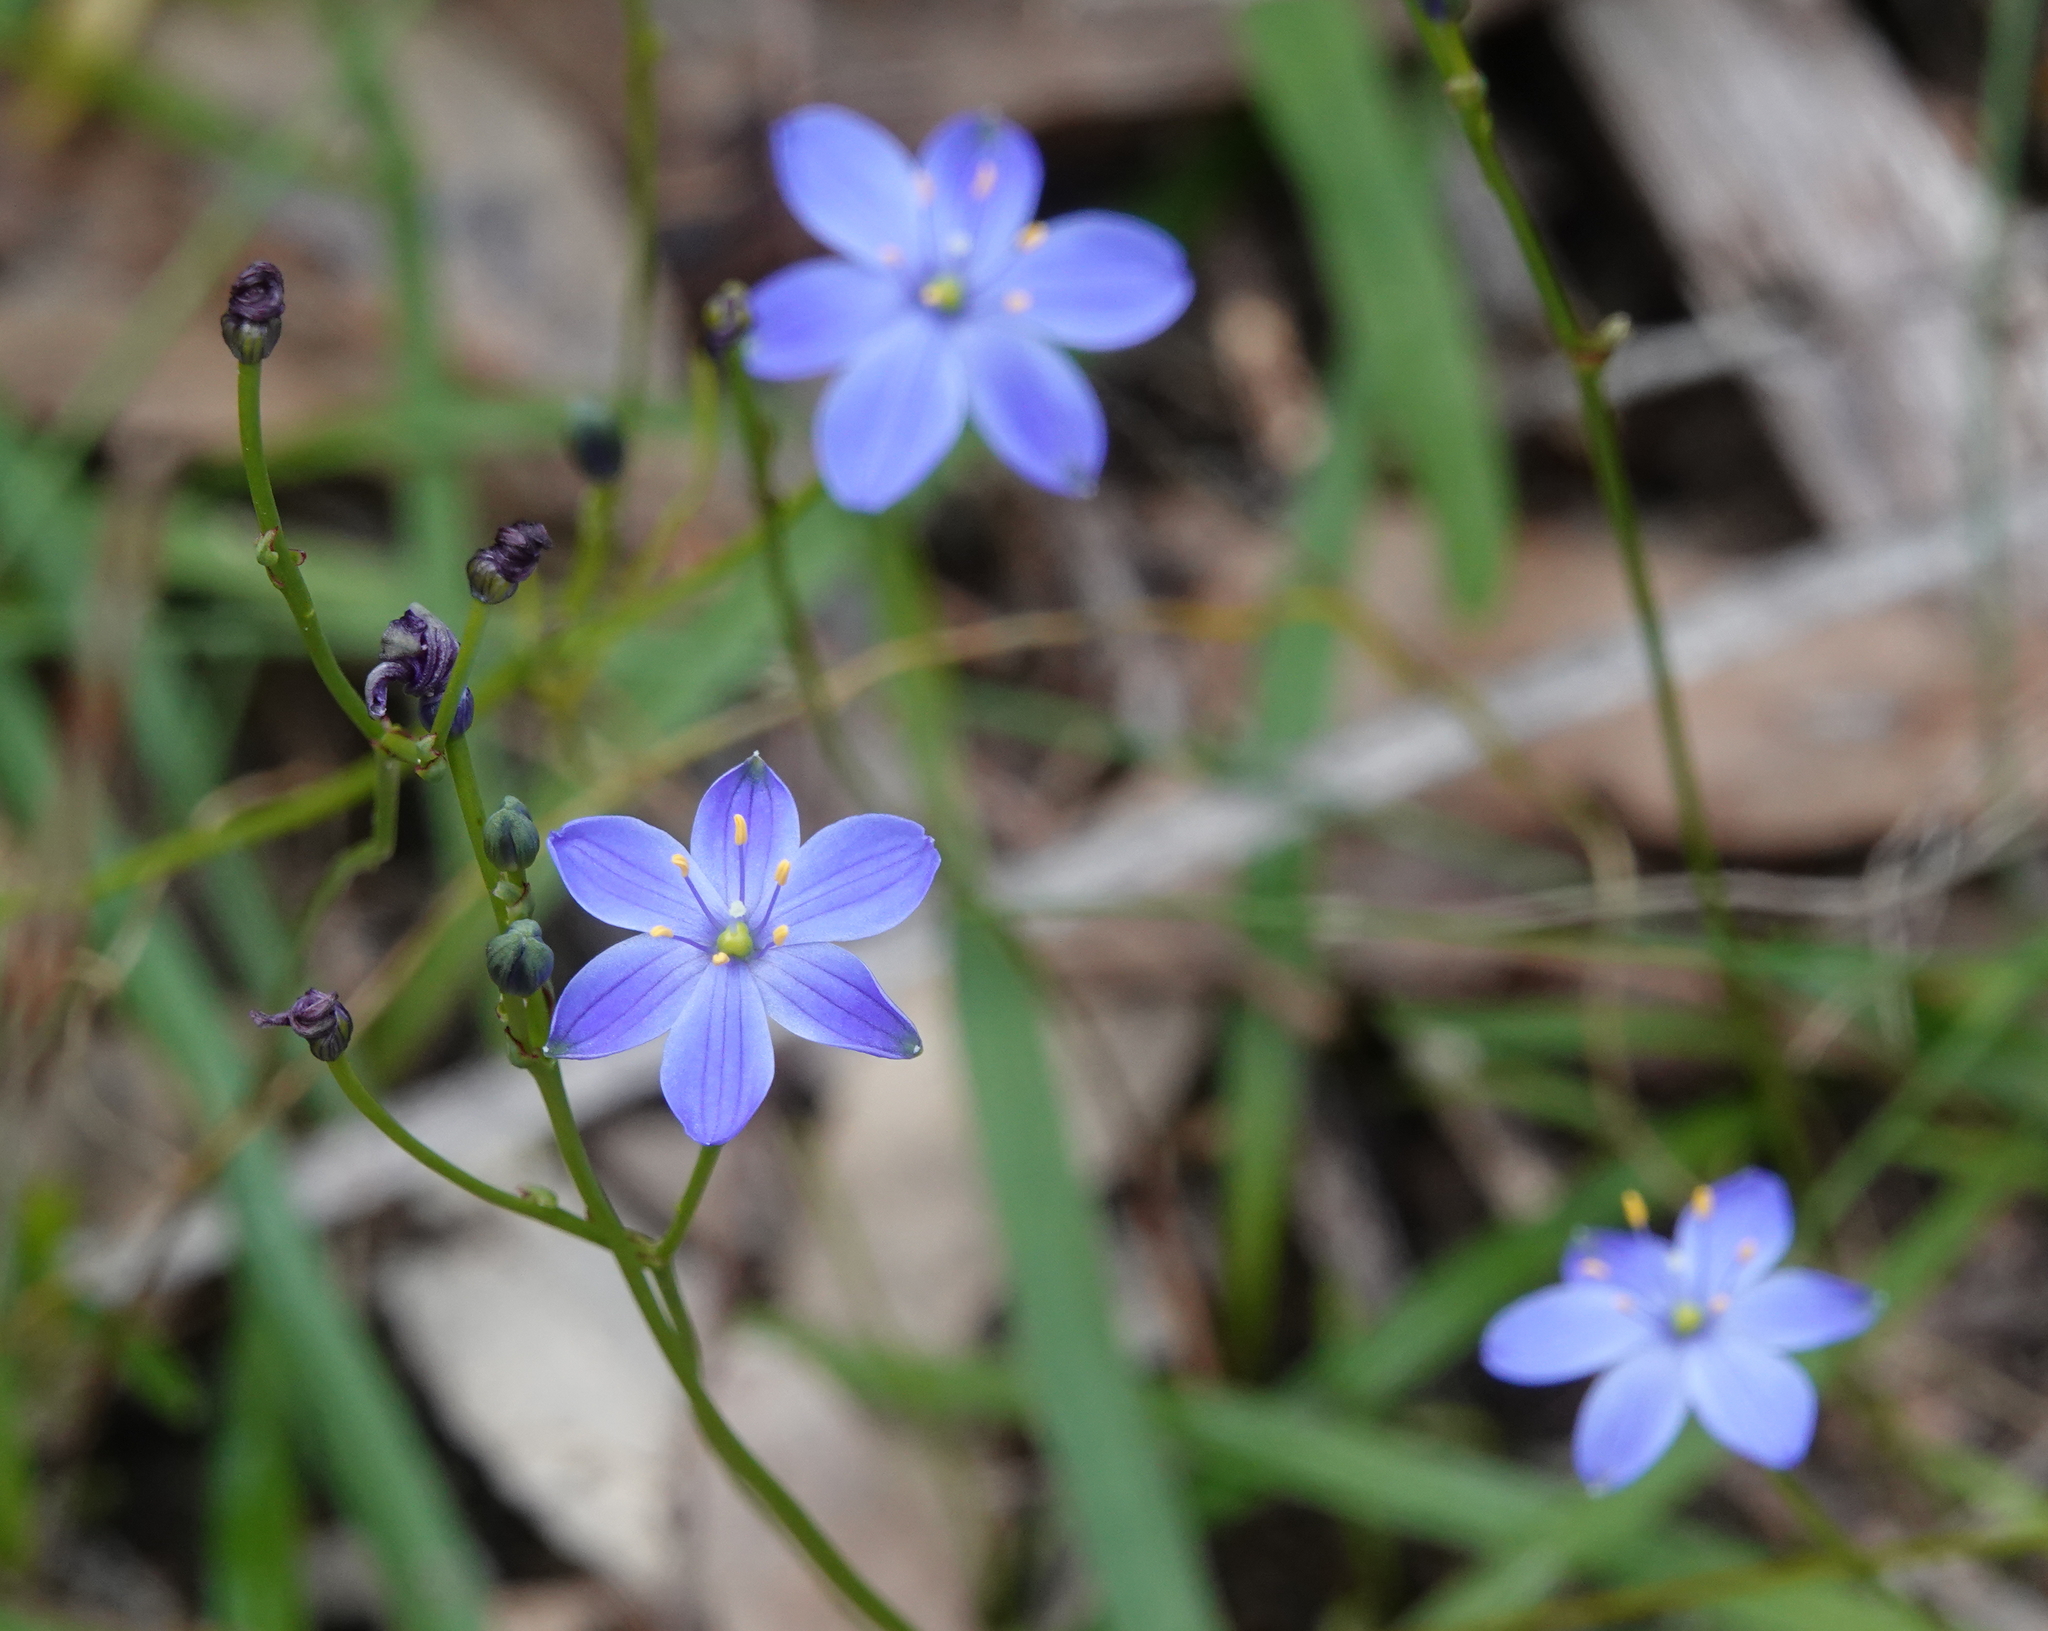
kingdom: Plantae
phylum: Tracheophyta
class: Liliopsida
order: Asparagales
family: Asphodelaceae
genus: Chamaescilla
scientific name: Chamaescilla corymbosa
